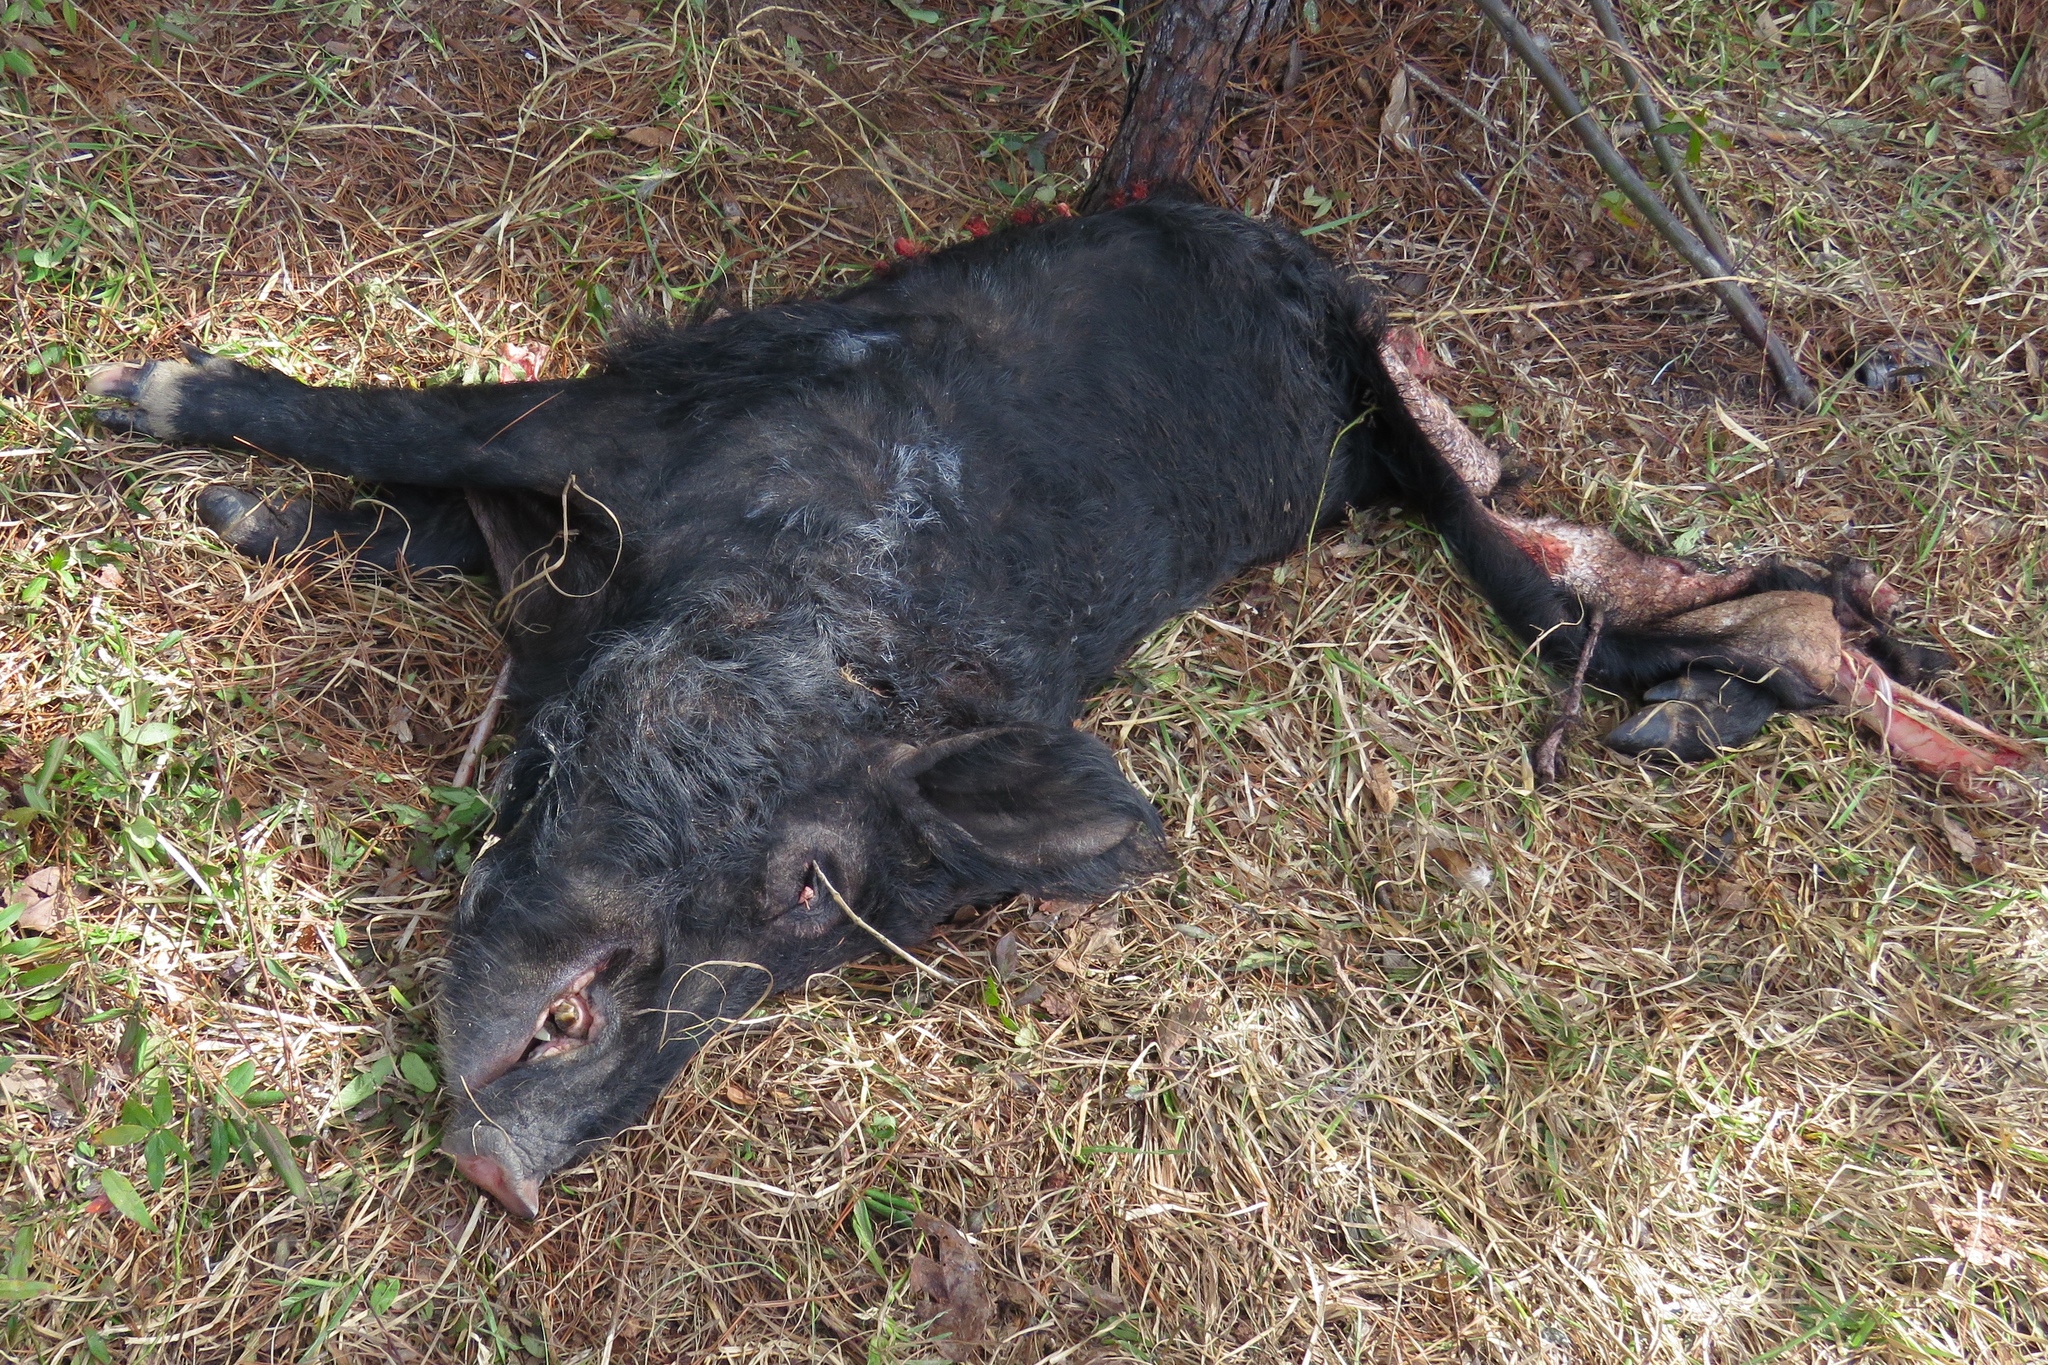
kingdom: Animalia
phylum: Chordata
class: Mammalia
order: Artiodactyla
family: Suidae
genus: Sus
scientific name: Sus scrofa
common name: Wild boar
